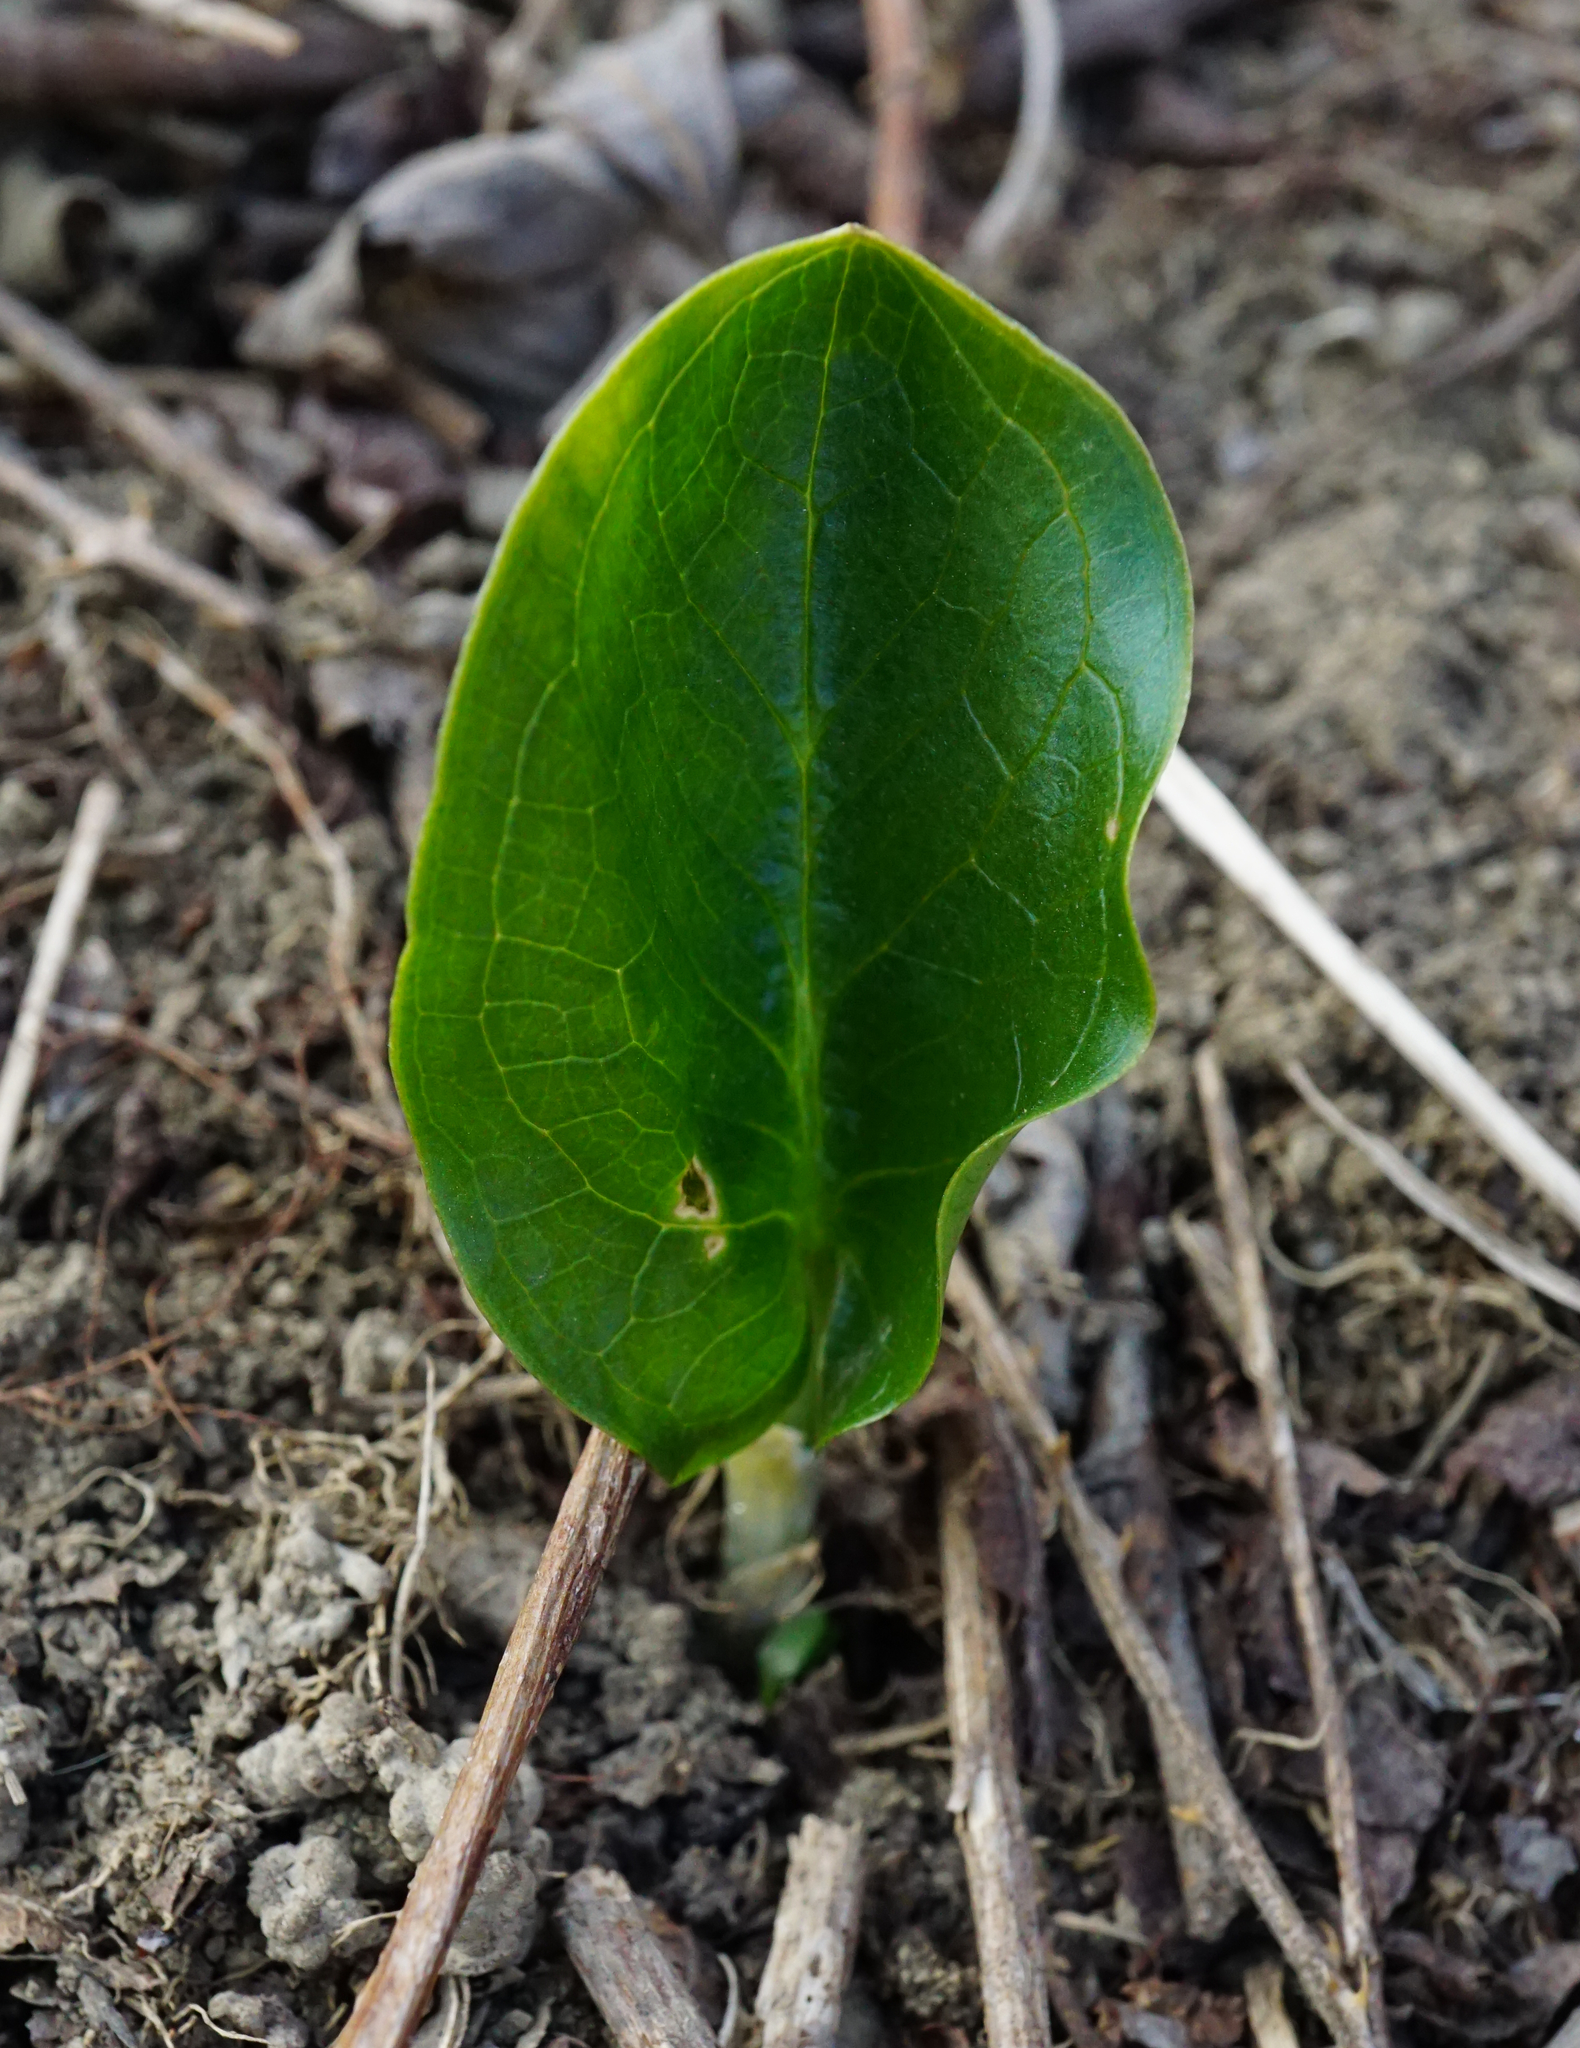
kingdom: Plantae
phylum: Tracheophyta
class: Liliopsida
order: Alismatales
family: Araceae
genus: Arum
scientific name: Arum cylindraceum
